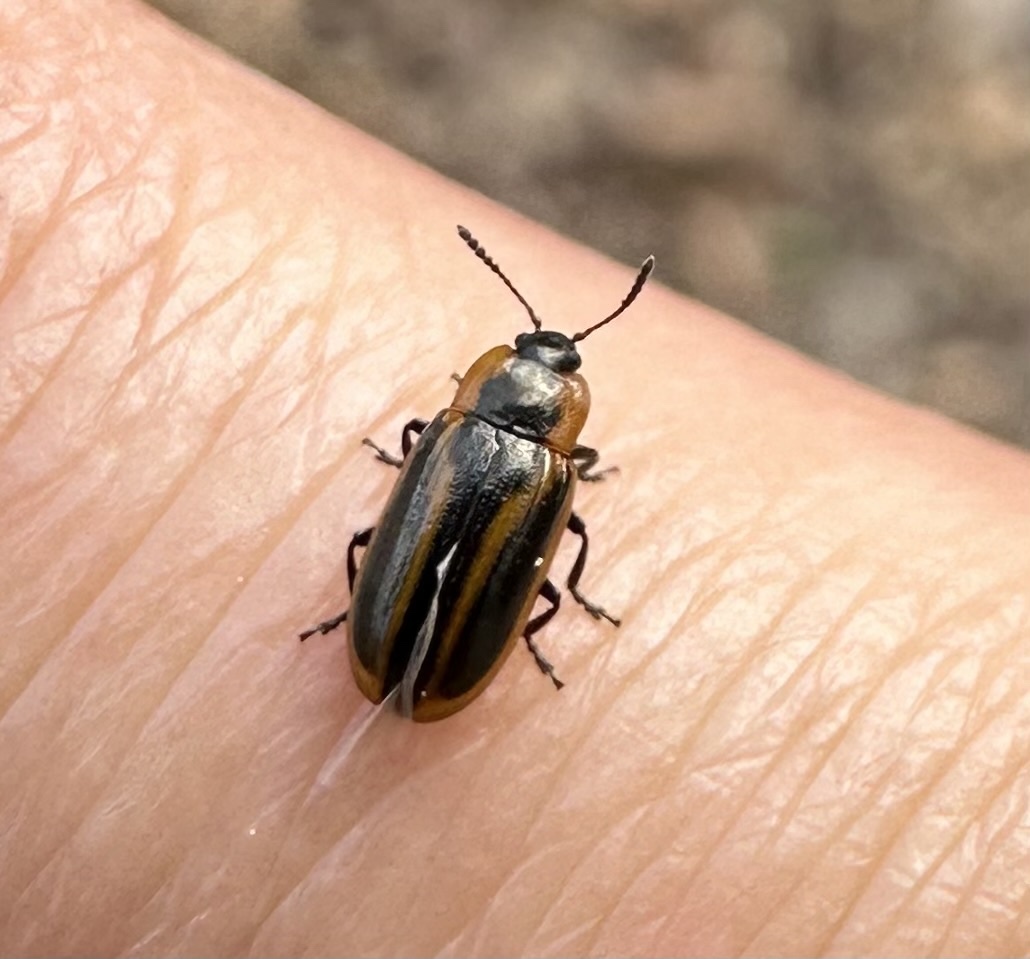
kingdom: Animalia
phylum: Arthropoda
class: Insecta
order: Coleoptera
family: Chrysomelidae
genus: Prasocuris
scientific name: Prasocuris vittata
